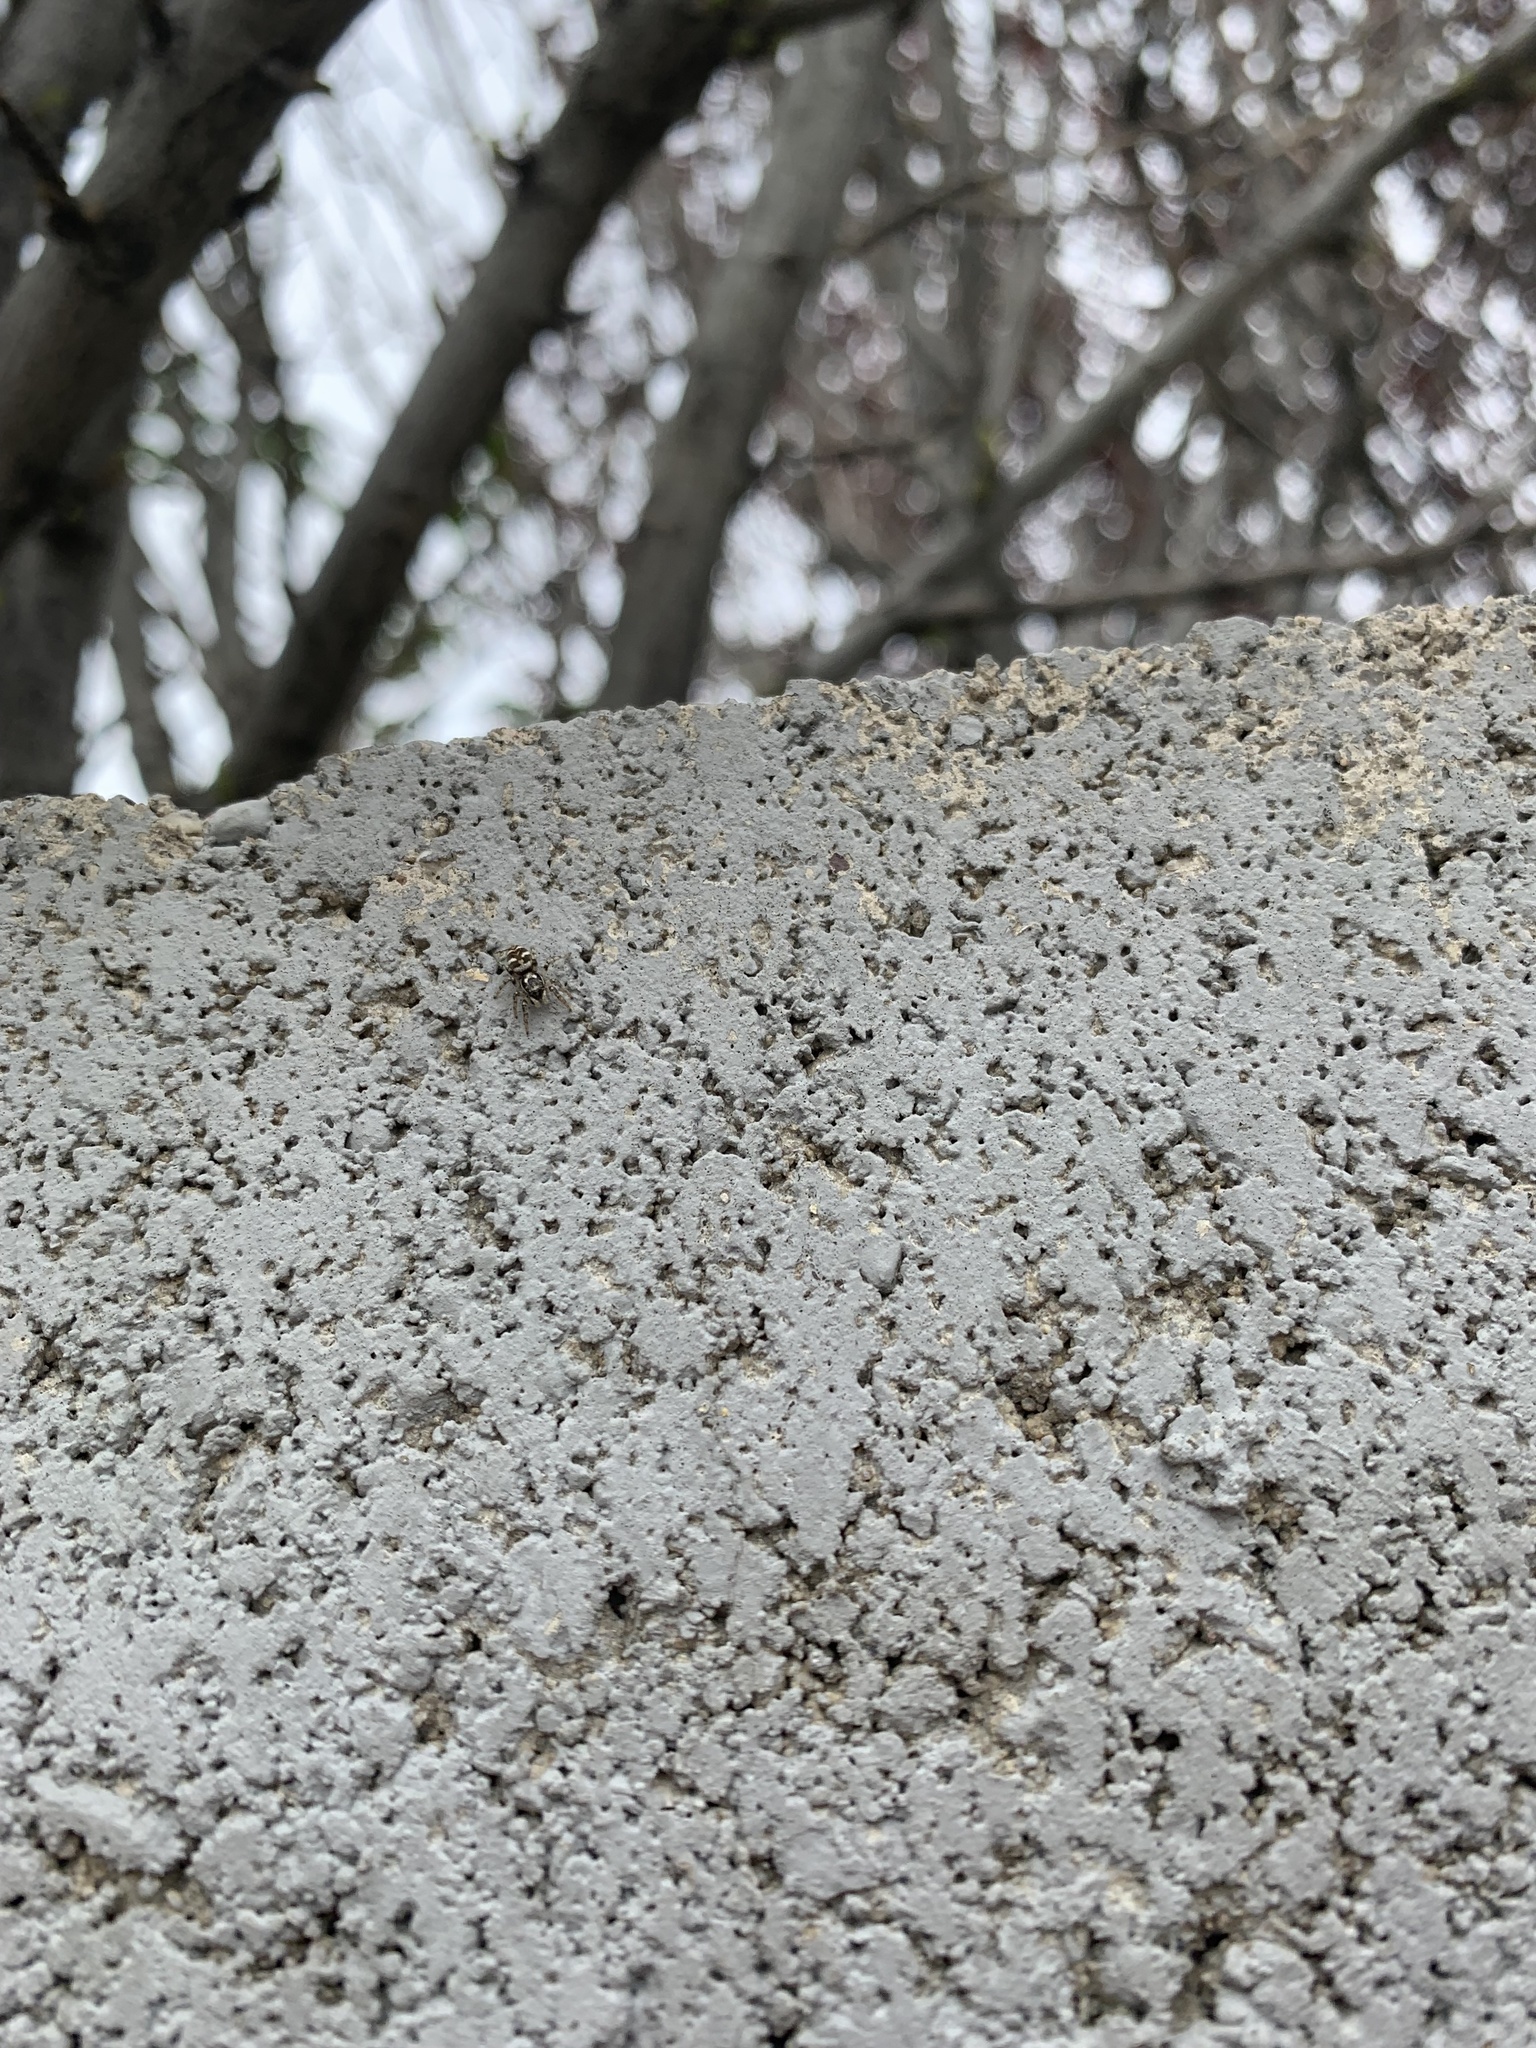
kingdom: Animalia
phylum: Arthropoda
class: Arachnida
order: Araneae
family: Salticidae
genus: Salticus
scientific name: Salticus scenicus
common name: Zebra jumper
